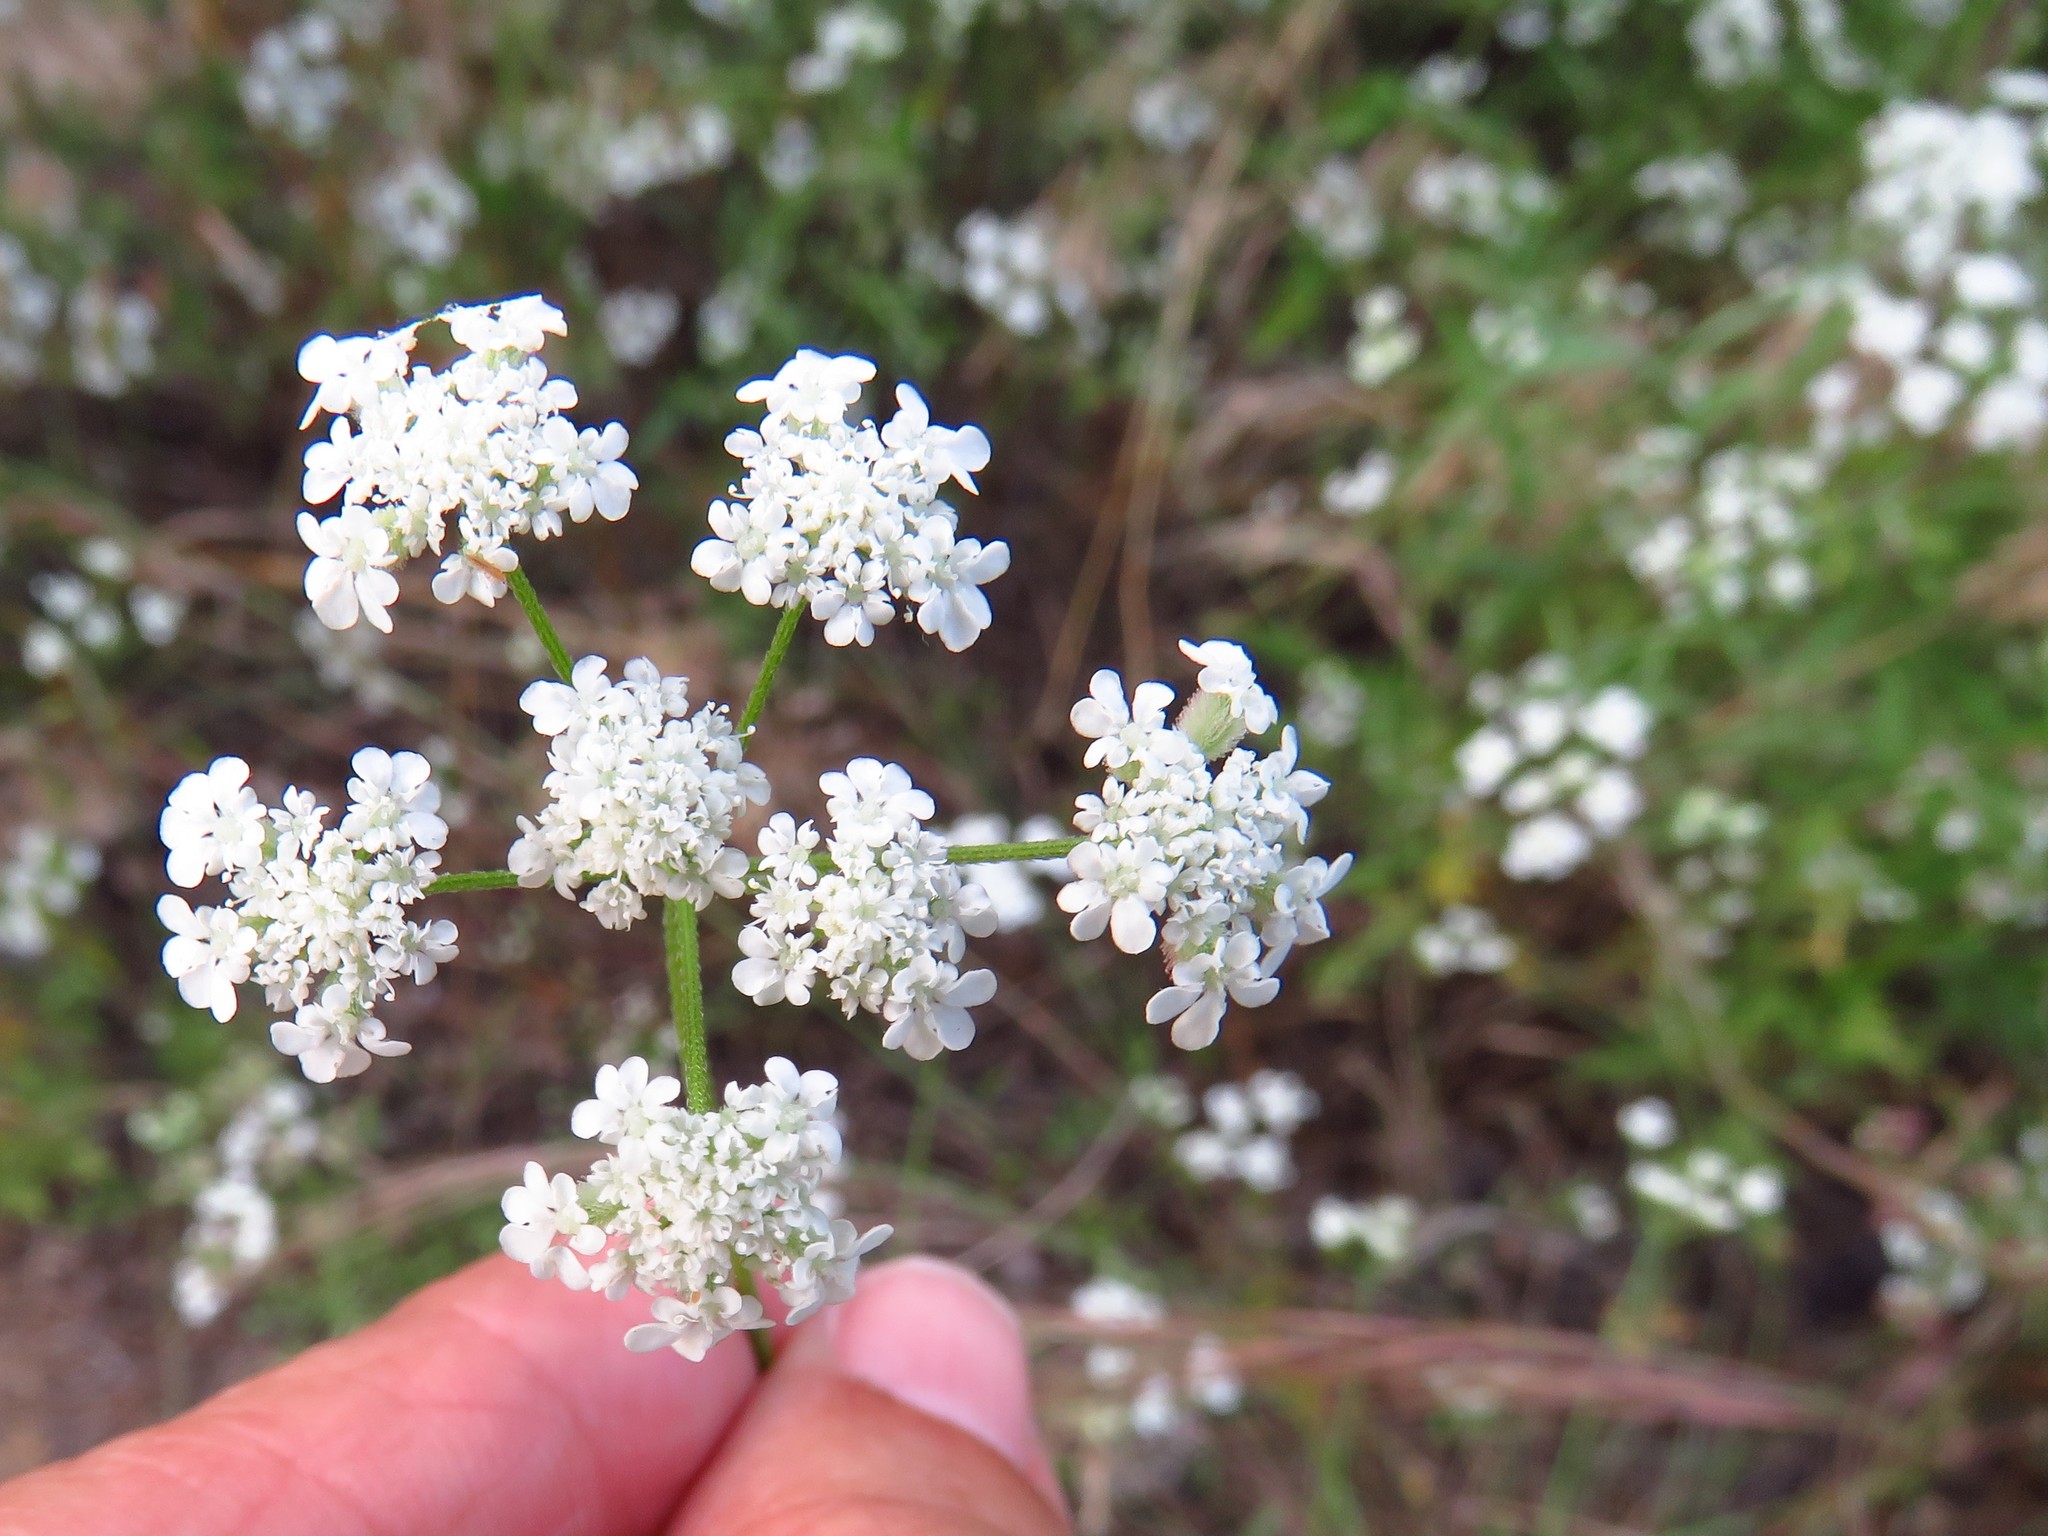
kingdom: Plantae
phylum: Tracheophyta
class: Magnoliopsida
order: Apiales
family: Apiaceae
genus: Torilis
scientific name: Torilis arvensis
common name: Spreading hedge-parsley
